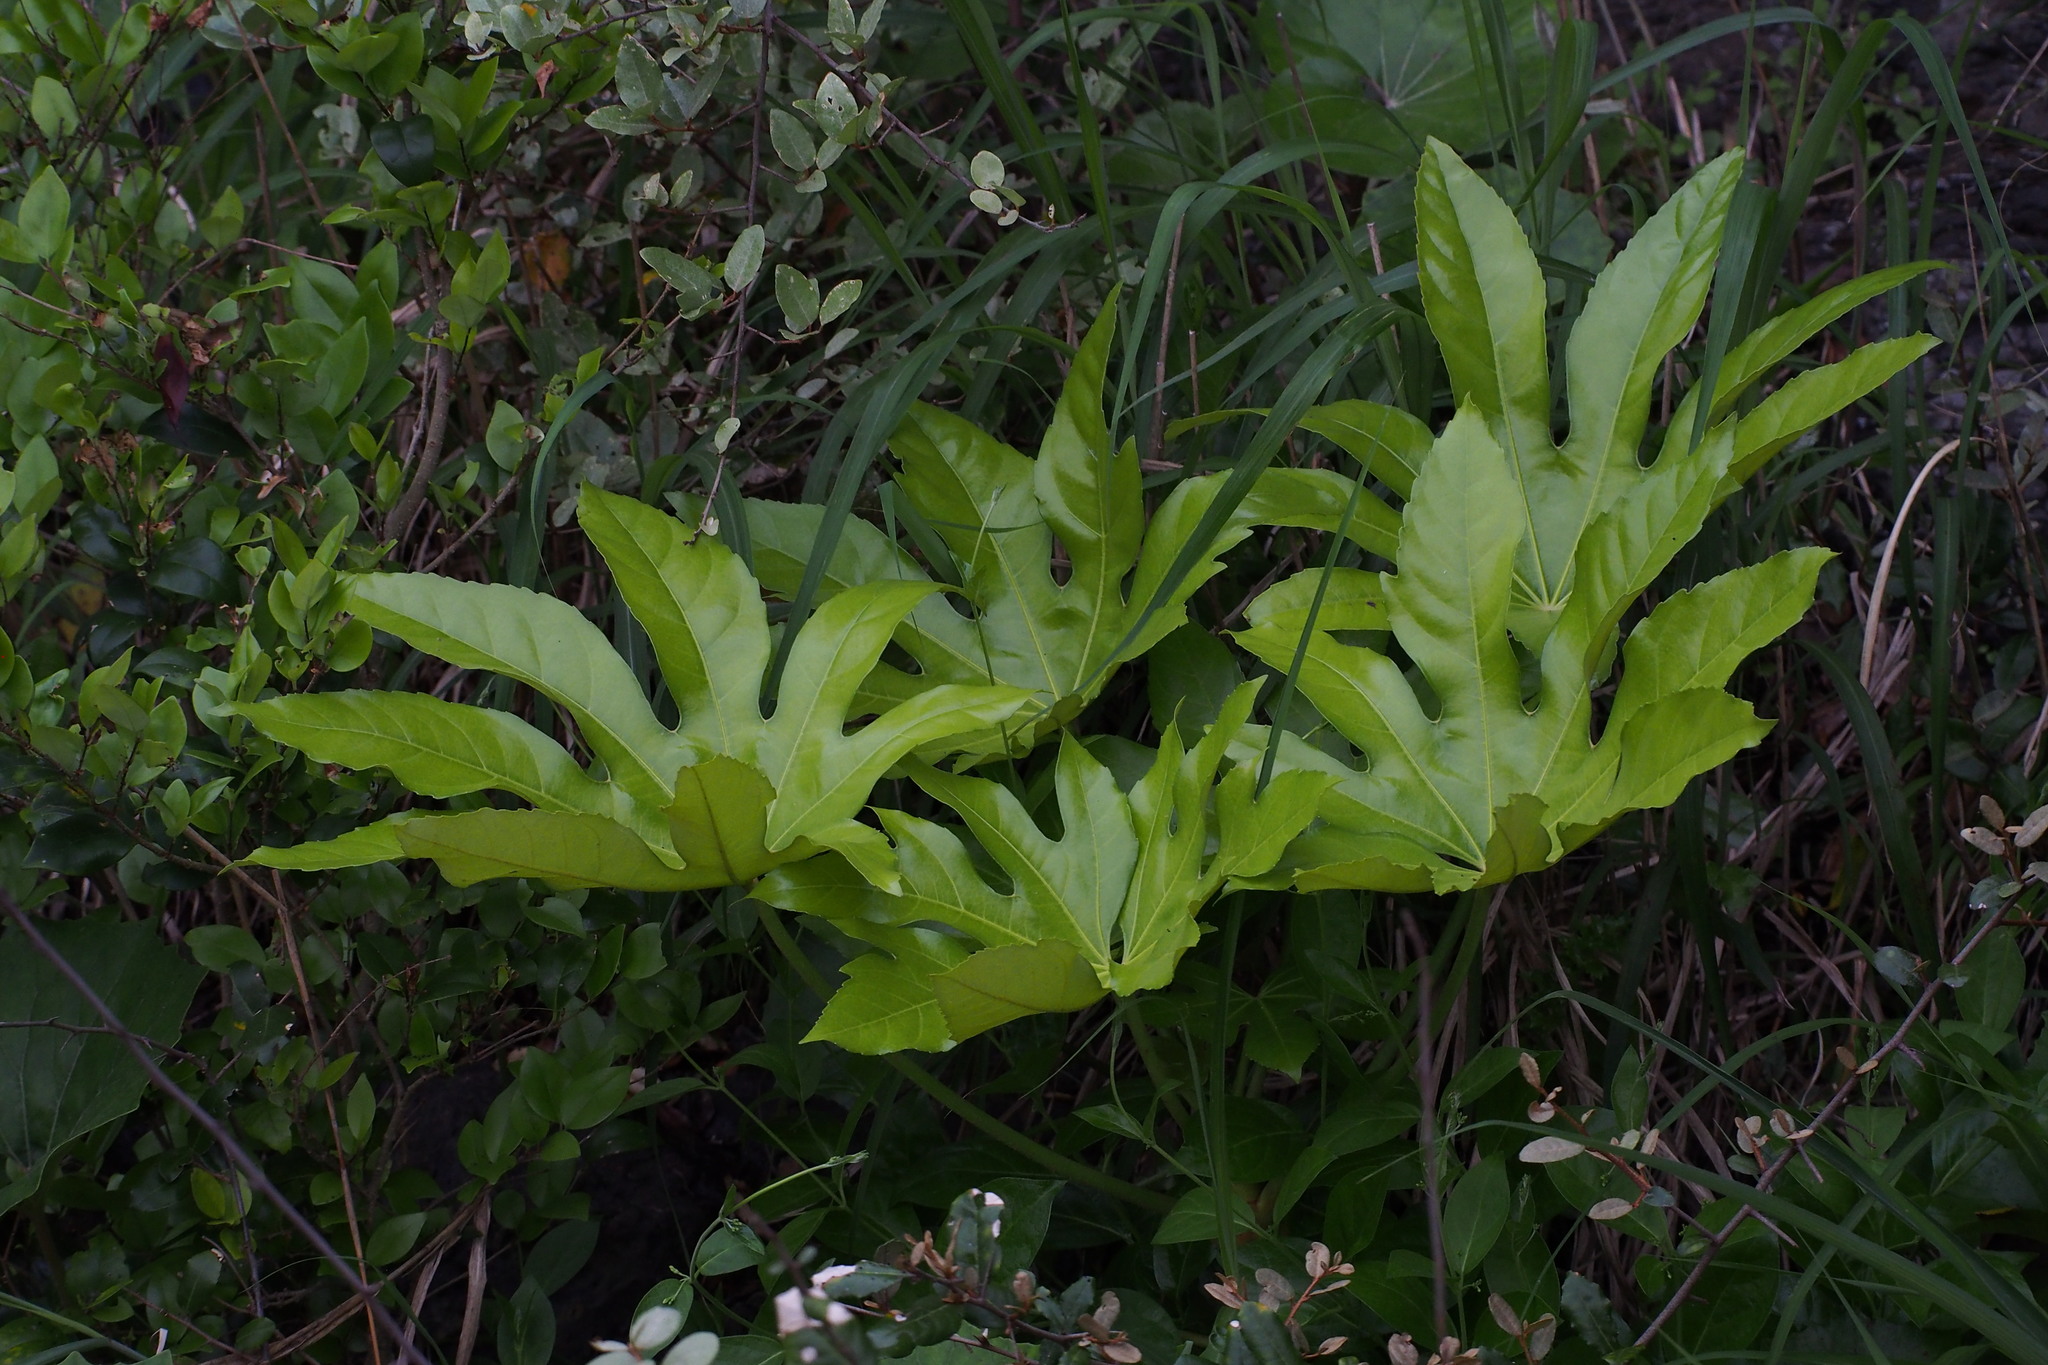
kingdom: Plantae
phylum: Tracheophyta
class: Magnoliopsida
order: Apiales
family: Araliaceae
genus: Fatsia
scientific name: Fatsia japonica
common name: Fatsia
